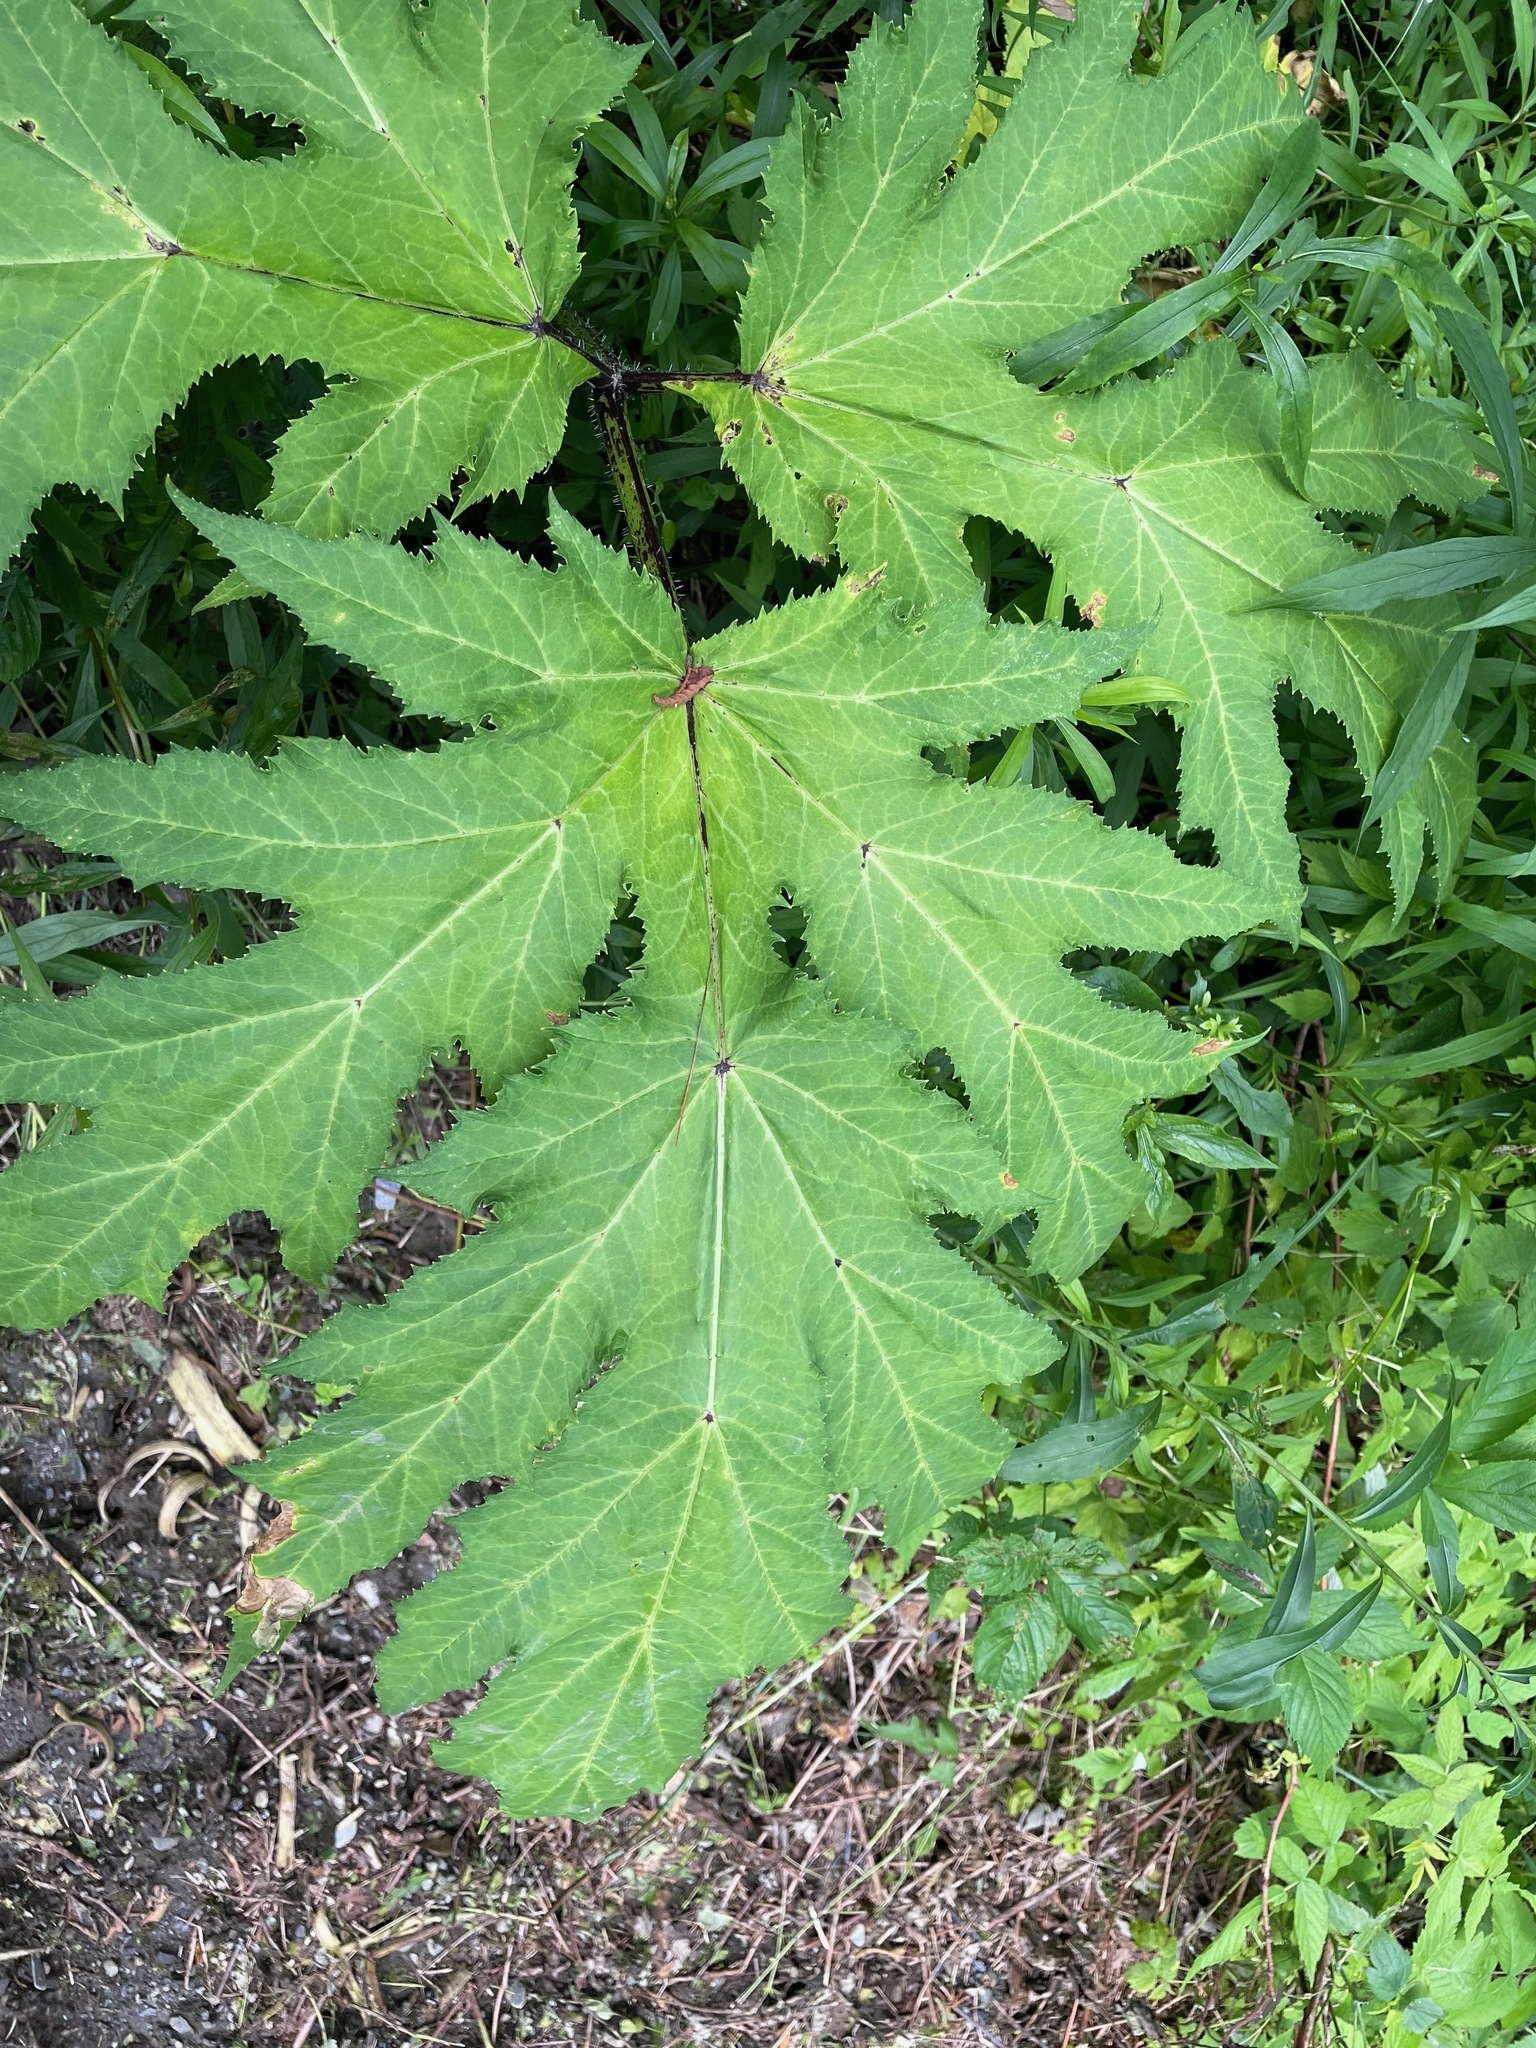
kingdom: Plantae
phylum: Tracheophyta
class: Magnoliopsida
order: Apiales
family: Apiaceae
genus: Heracleum
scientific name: Heracleum mantegazzianum
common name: Giant hogweed
